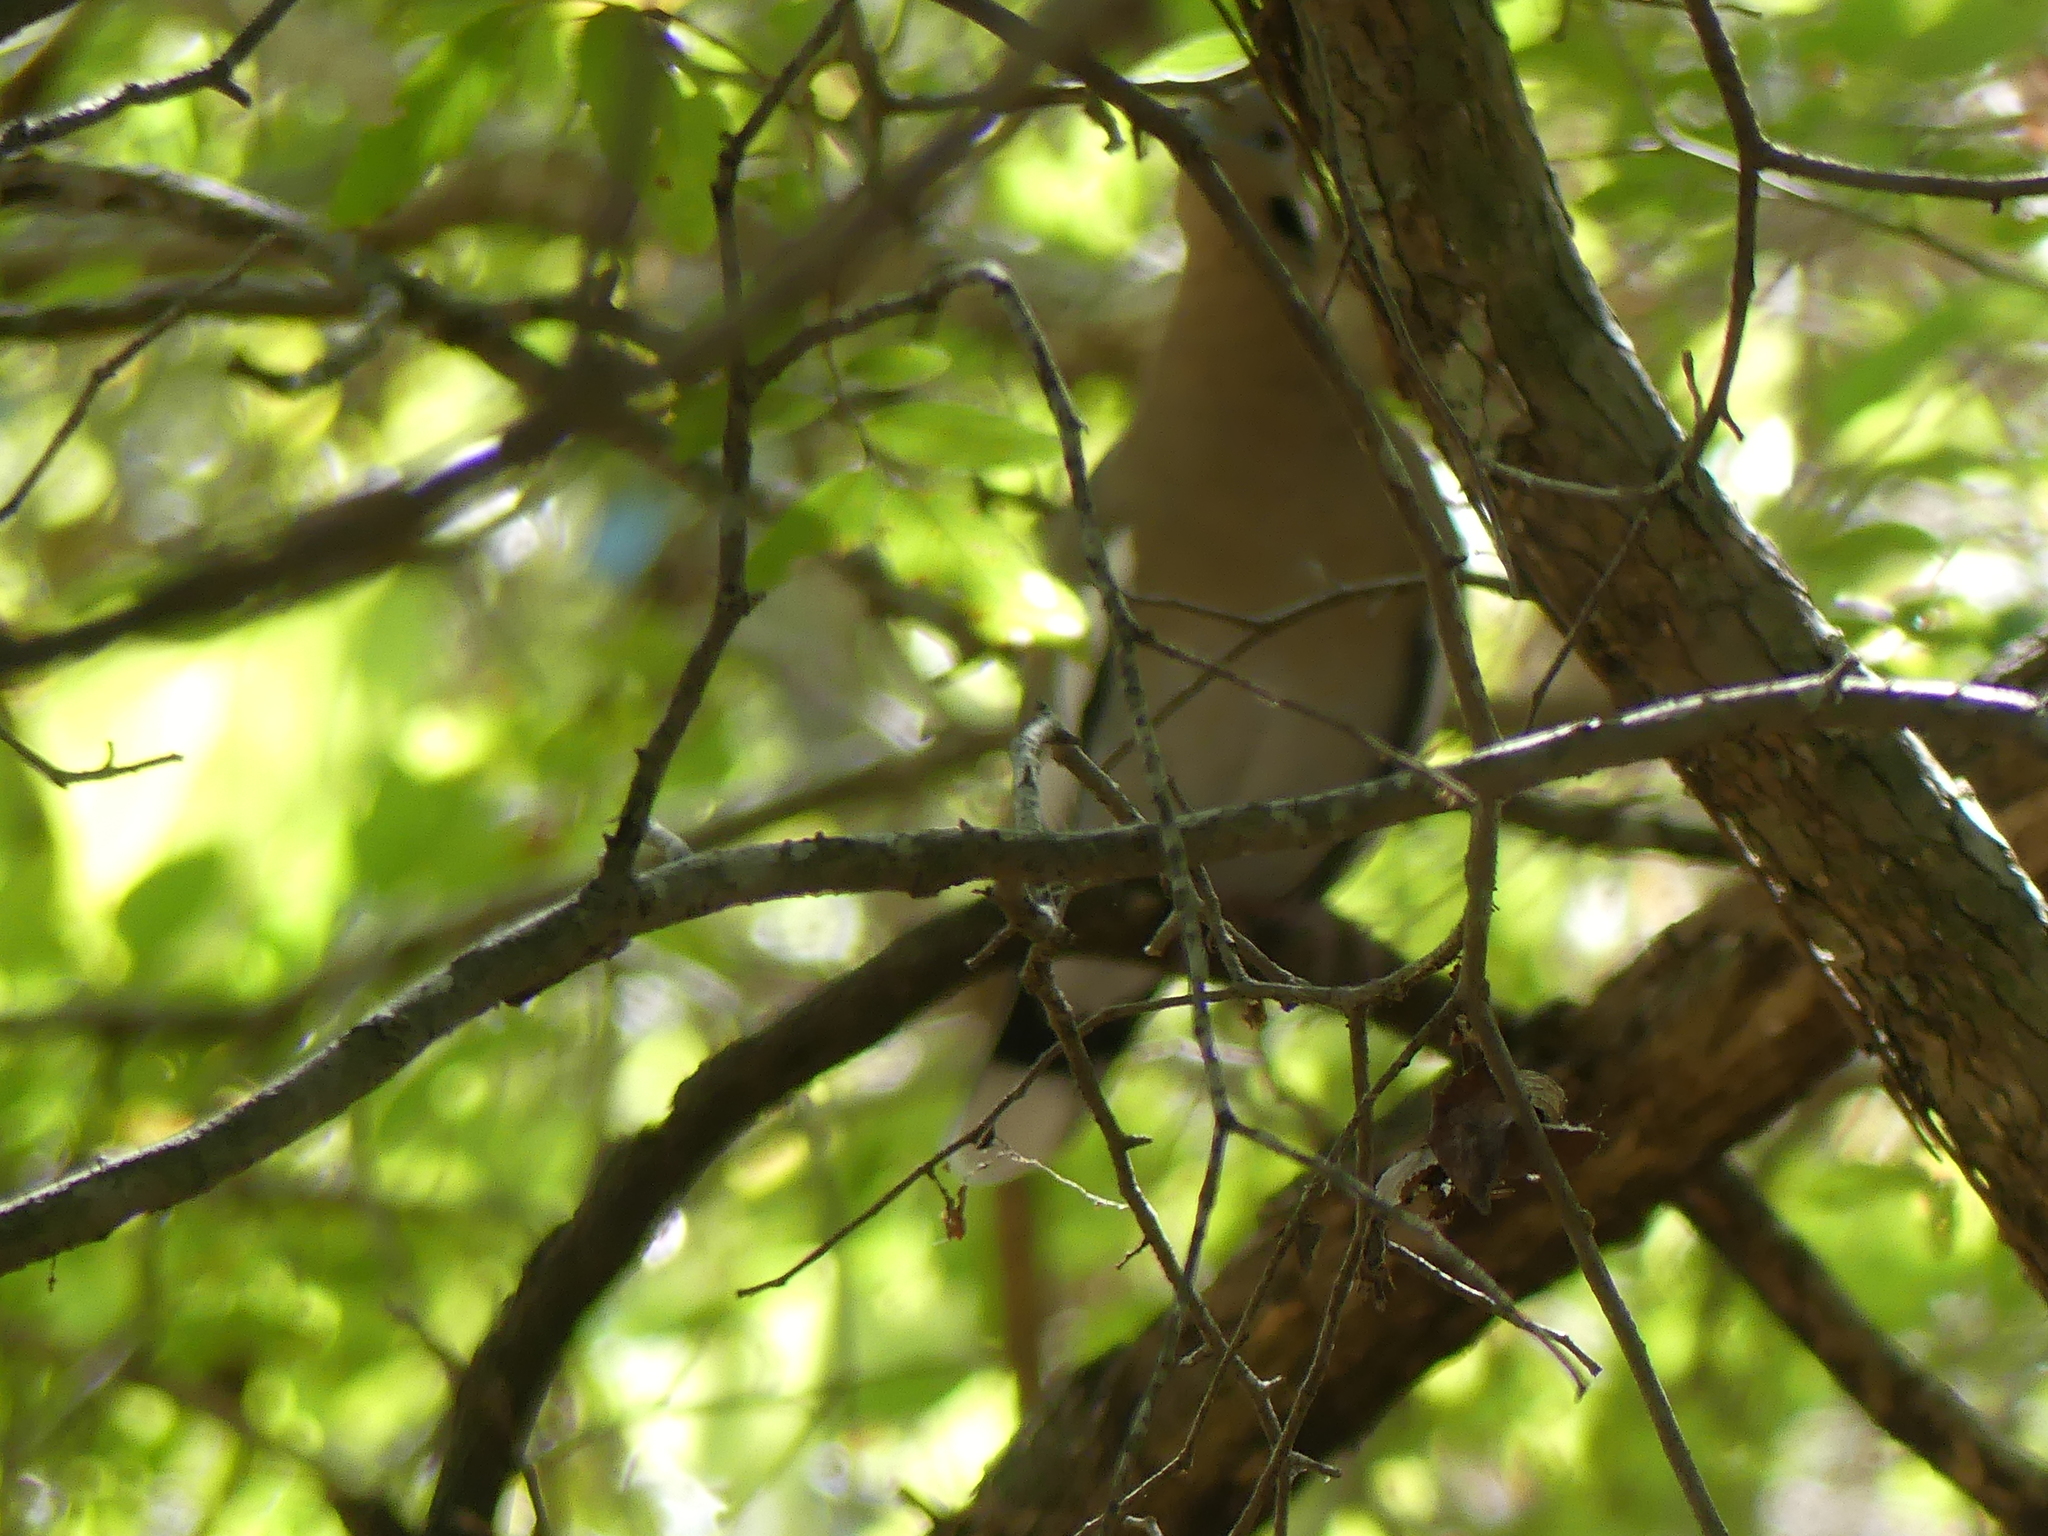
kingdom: Animalia
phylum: Chordata
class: Aves
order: Columbiformes
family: Columbidae
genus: Zenaida
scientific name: Zenaida asiatica
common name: White-winged dove
